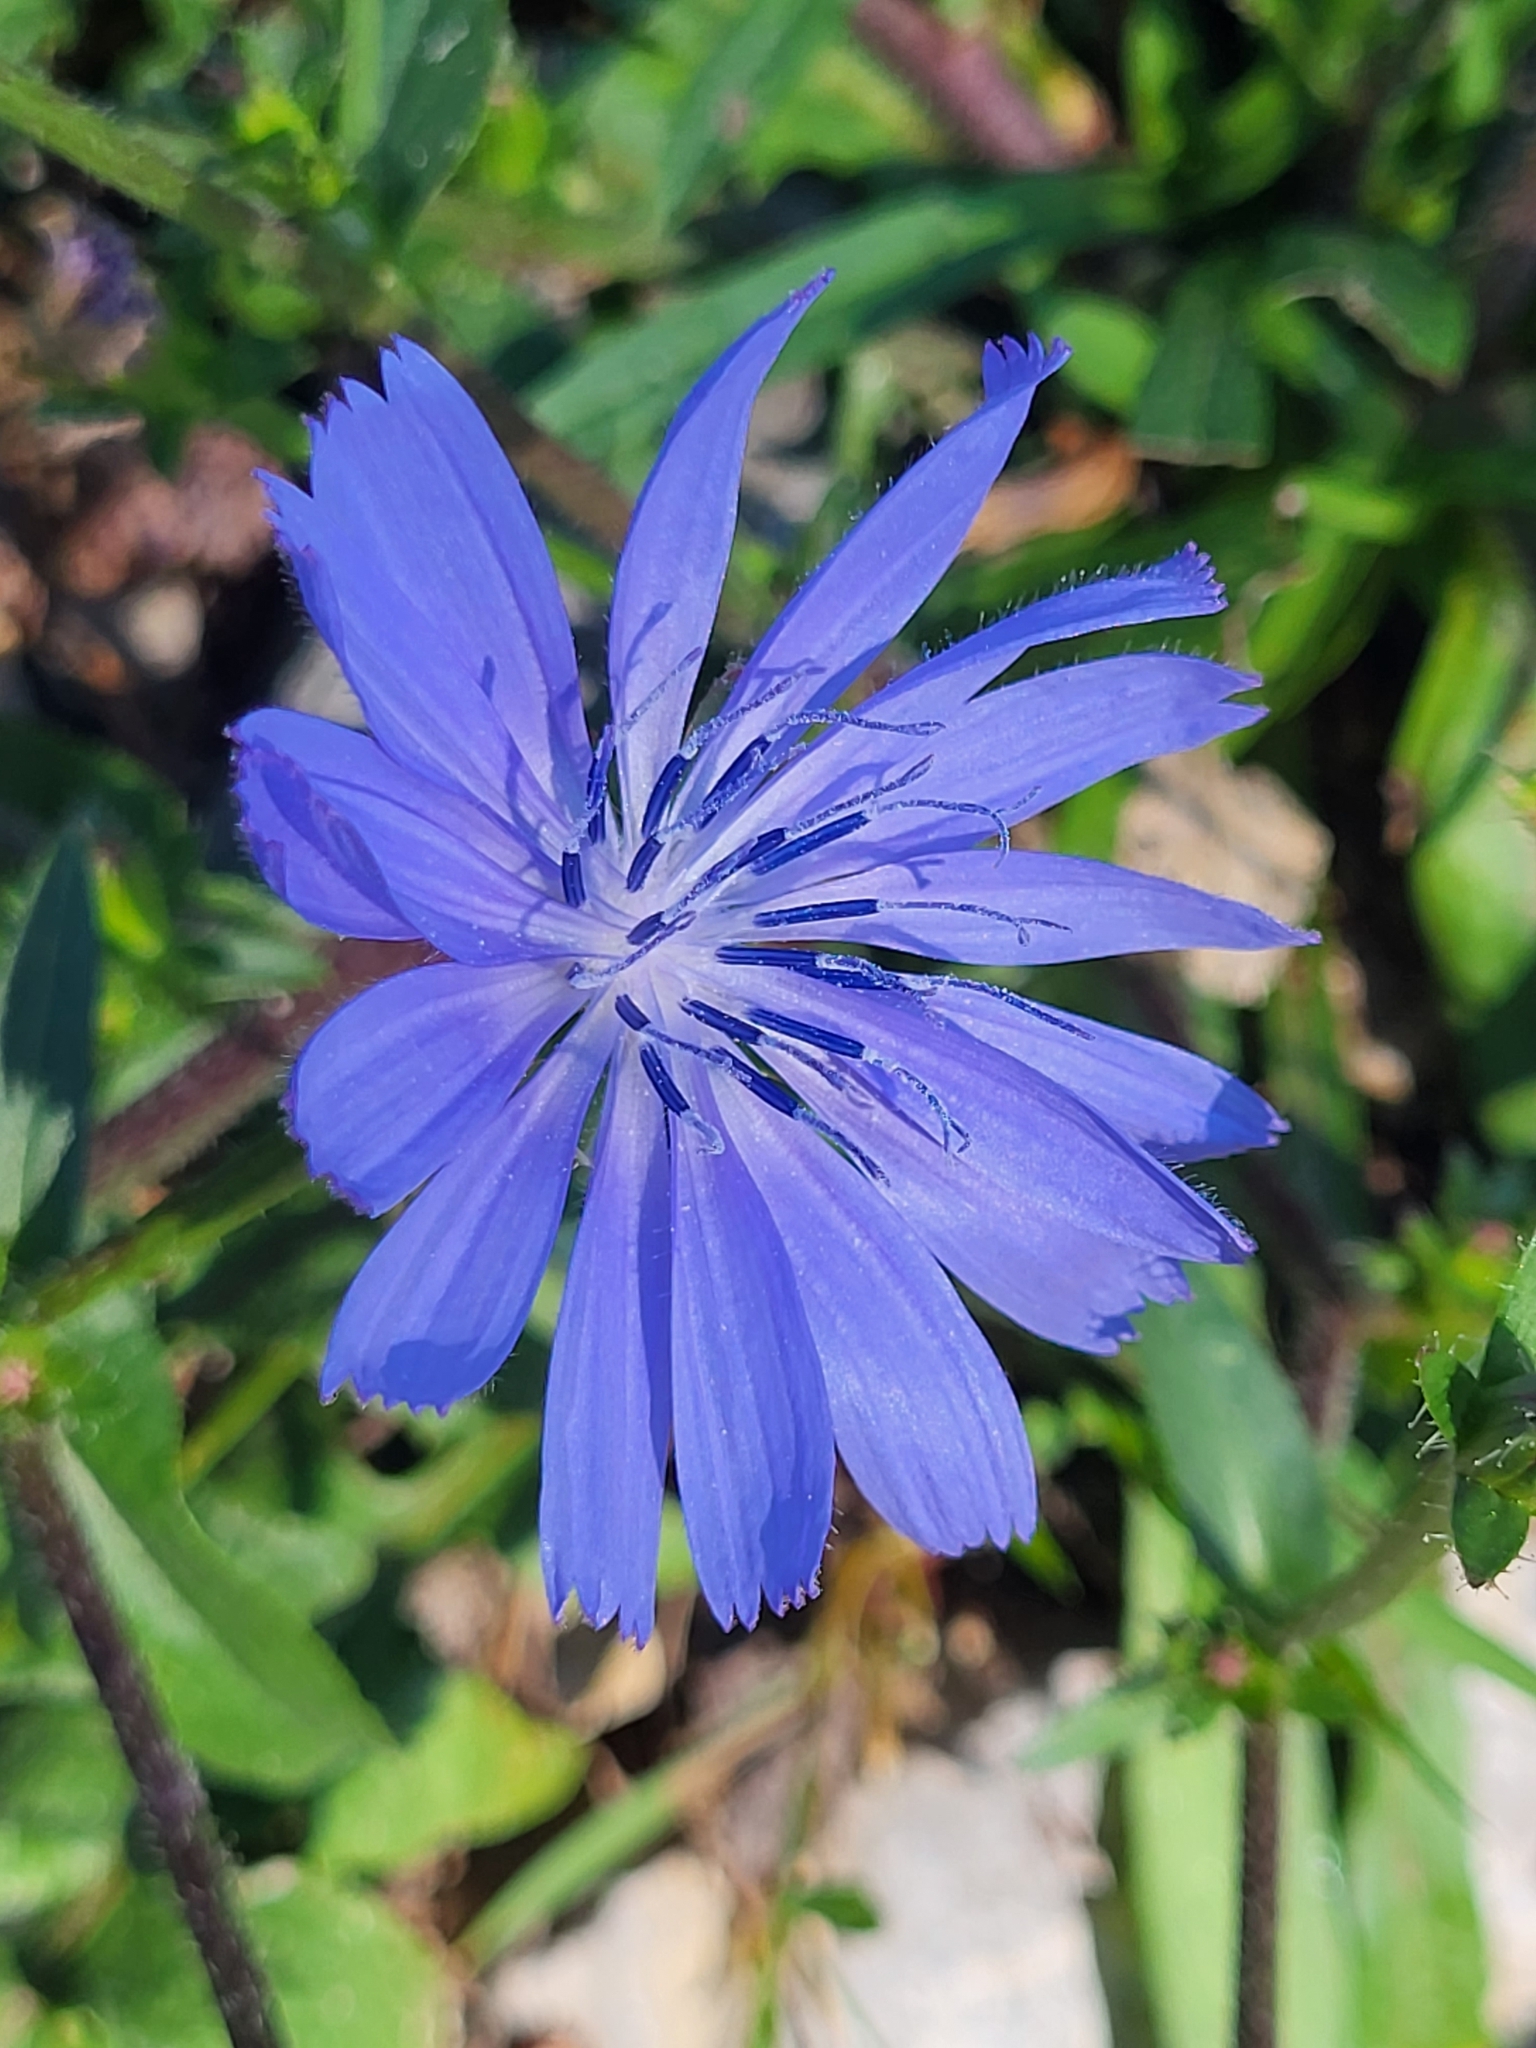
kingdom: Plantae
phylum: Tracheophyta
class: Magnoliopsida
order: Asterales
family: Asteraceae
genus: Cichorium
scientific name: Cichorium intybus
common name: Chicory
